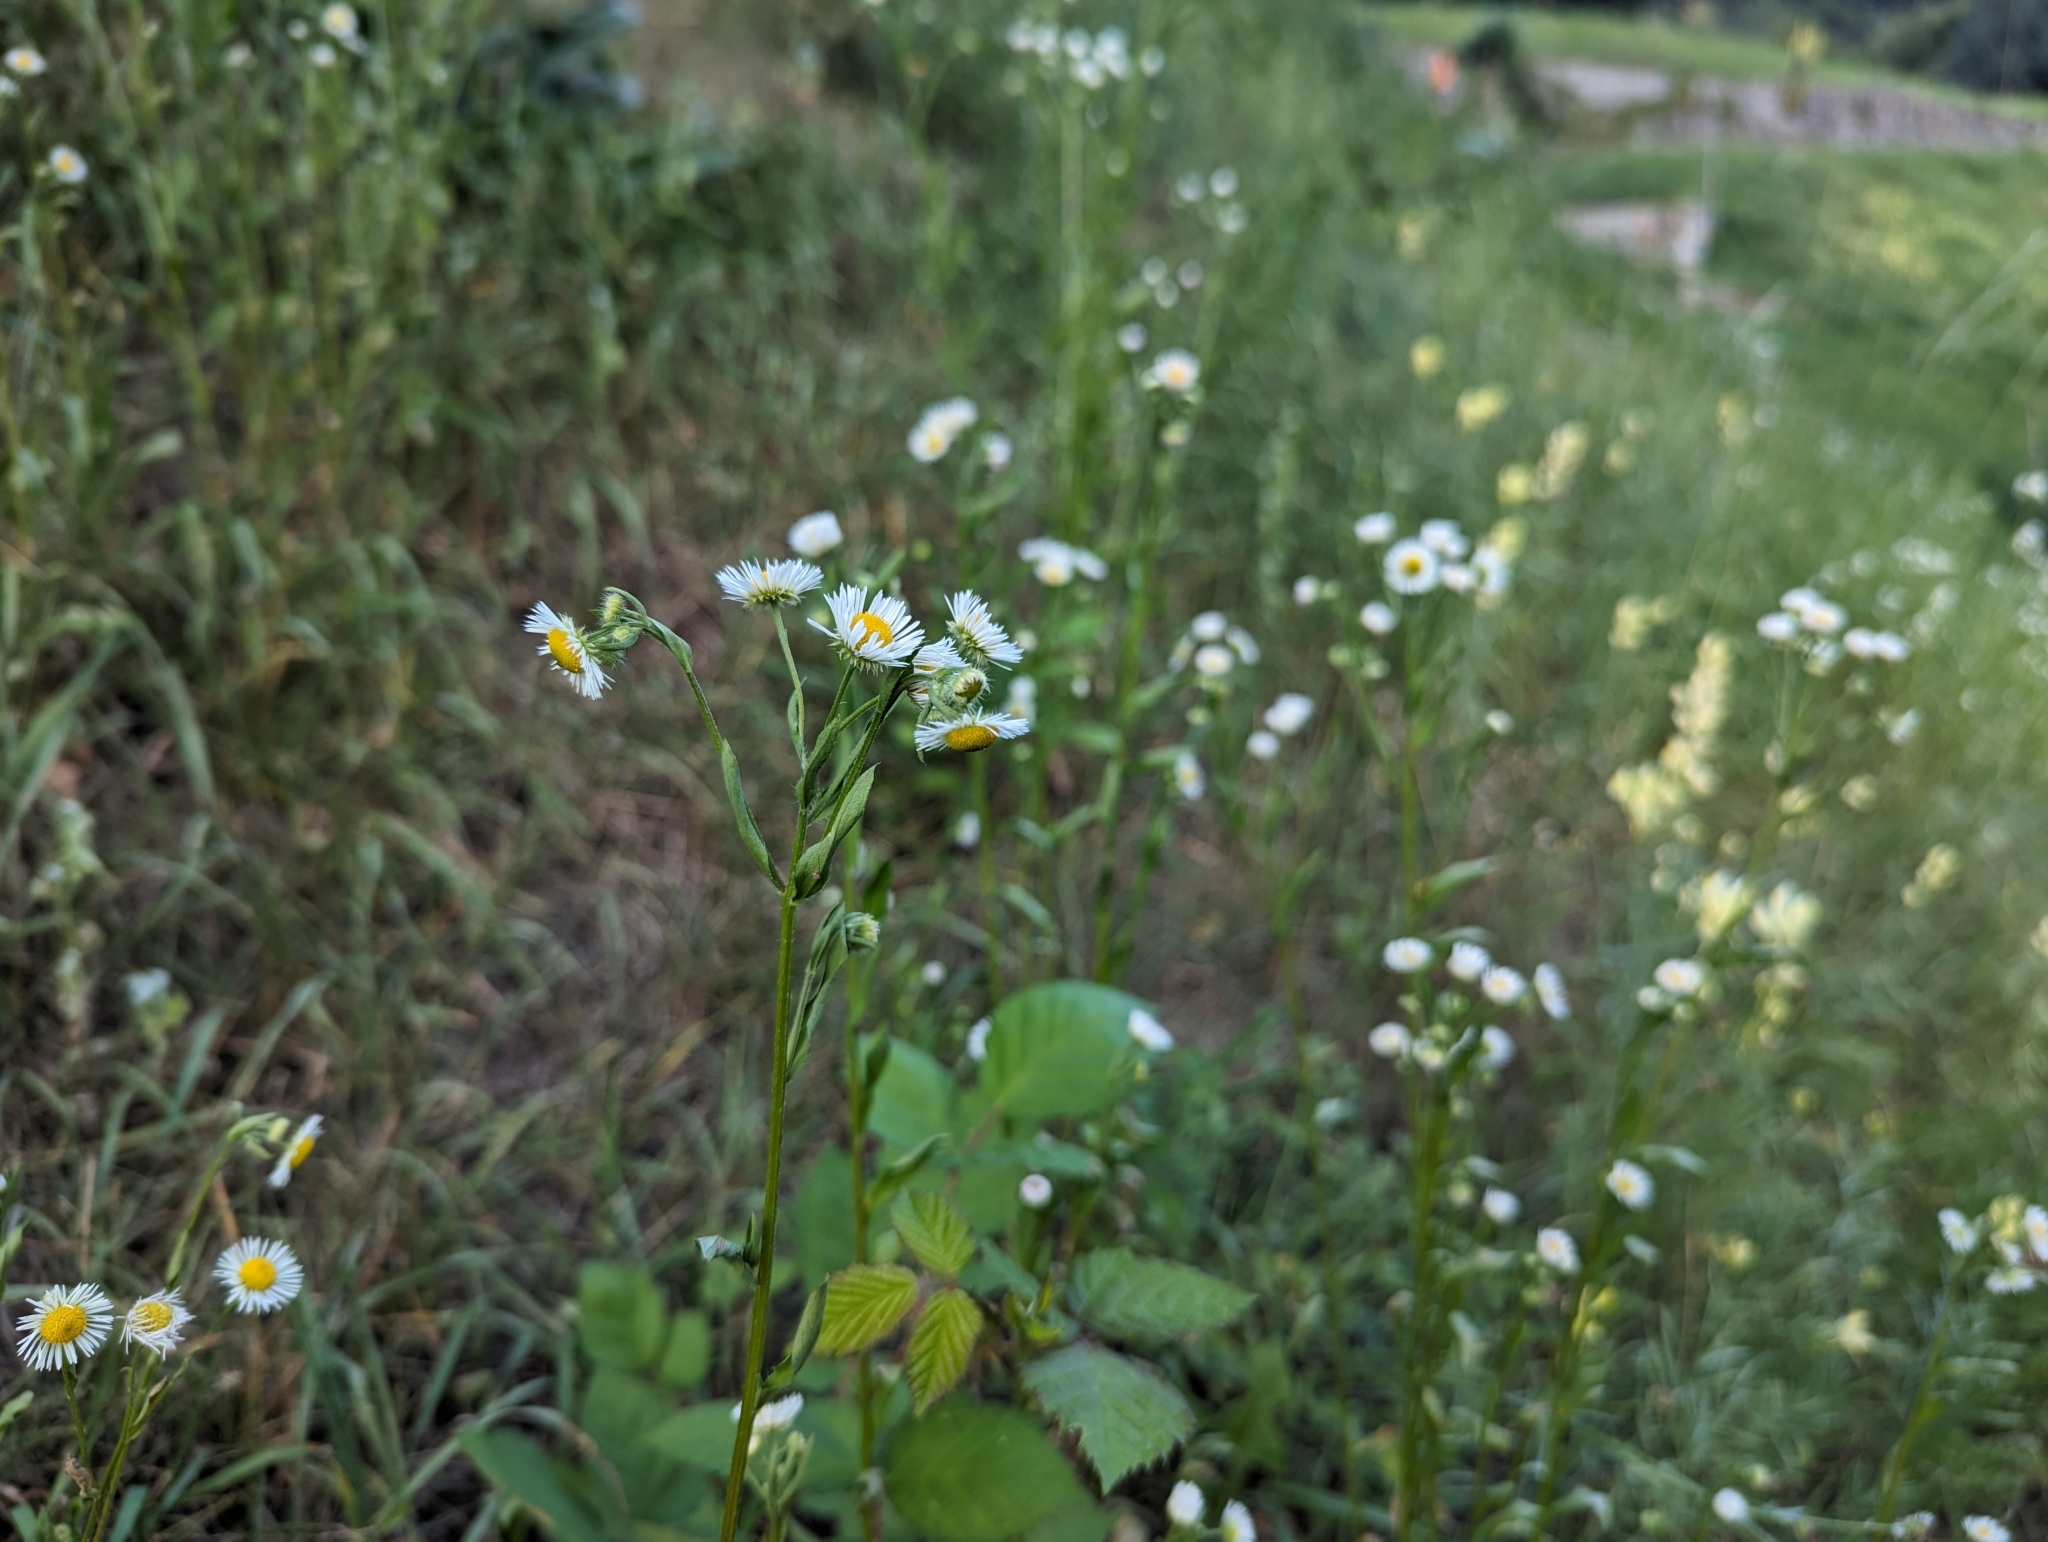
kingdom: Plantae
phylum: Tracheophyta
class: Magnoliopsida
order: Asterales
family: Asteraceae
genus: Erigeron
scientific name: Erigeron annuus
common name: Tall fleabane
